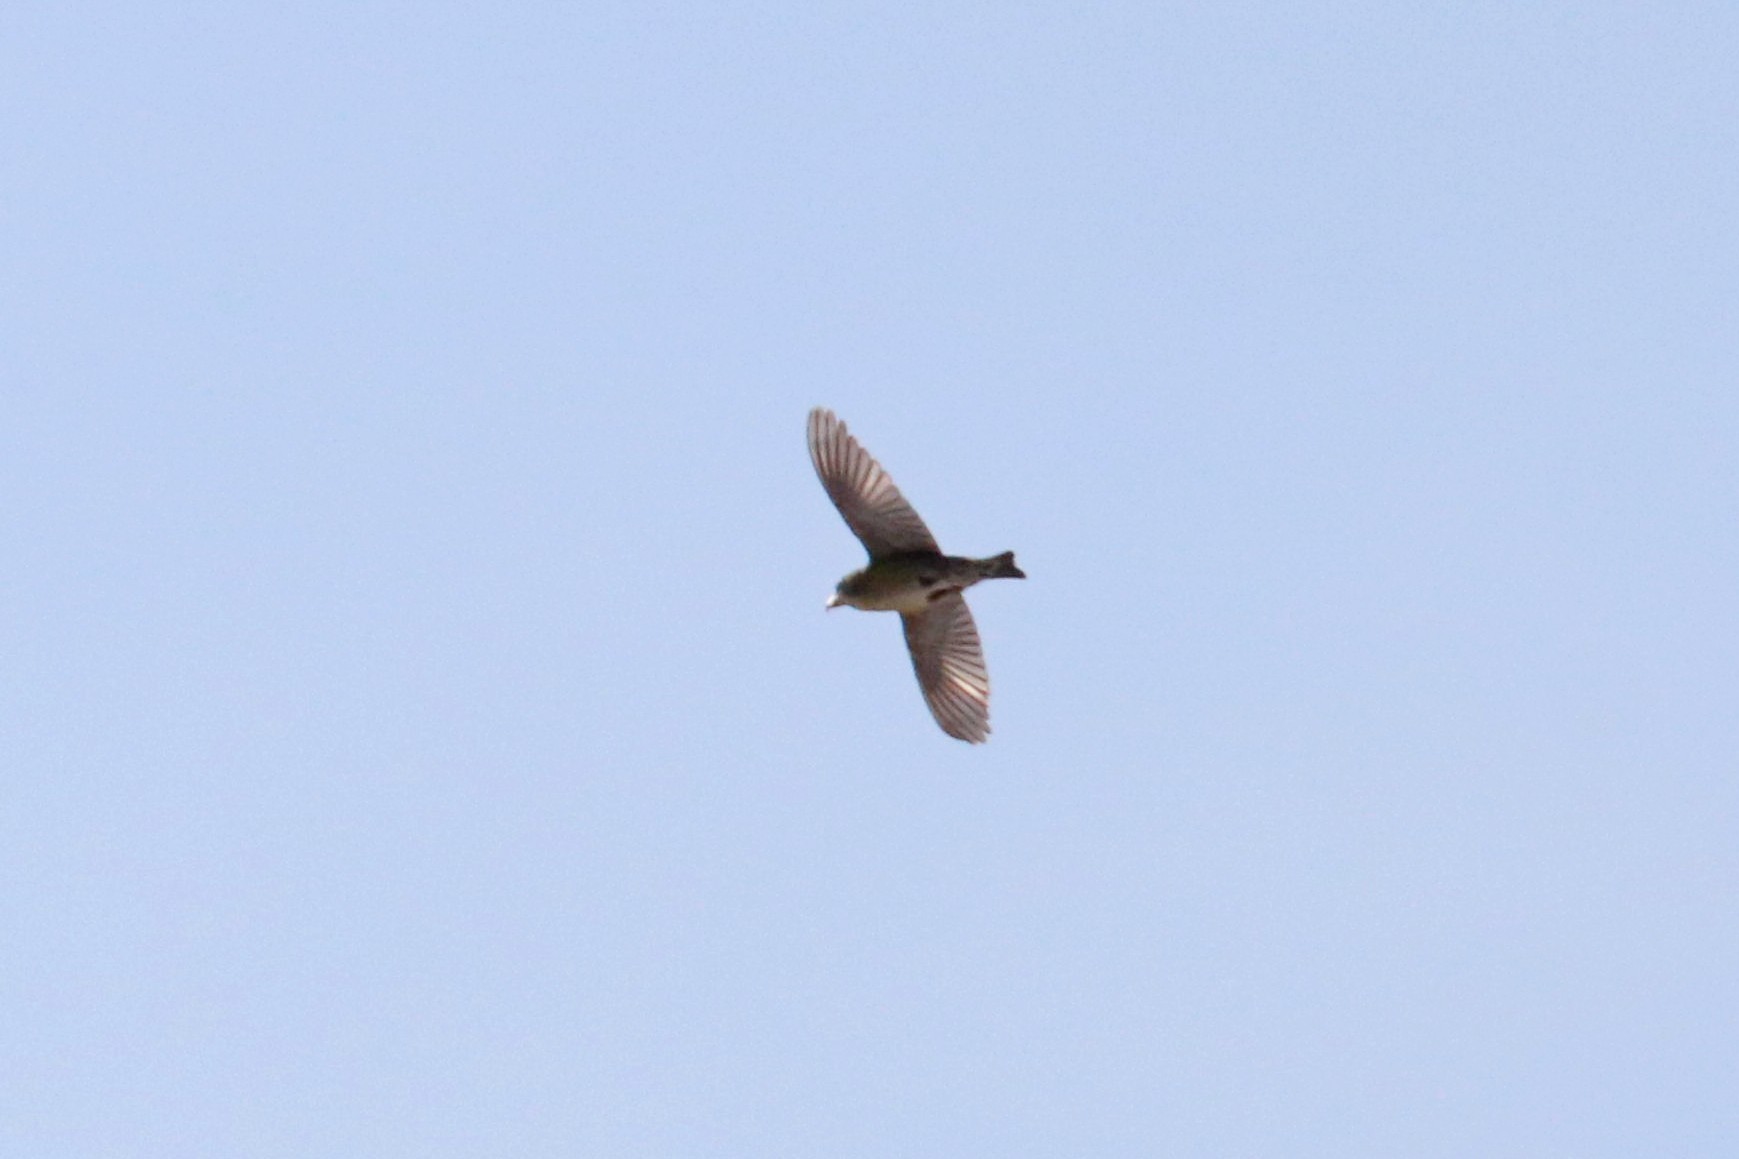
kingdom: Animalia
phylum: Chordata
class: Aves
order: Passeriformes
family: Fringillidae
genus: Loxia
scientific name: Loxia curvirostra
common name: Red crossbill
